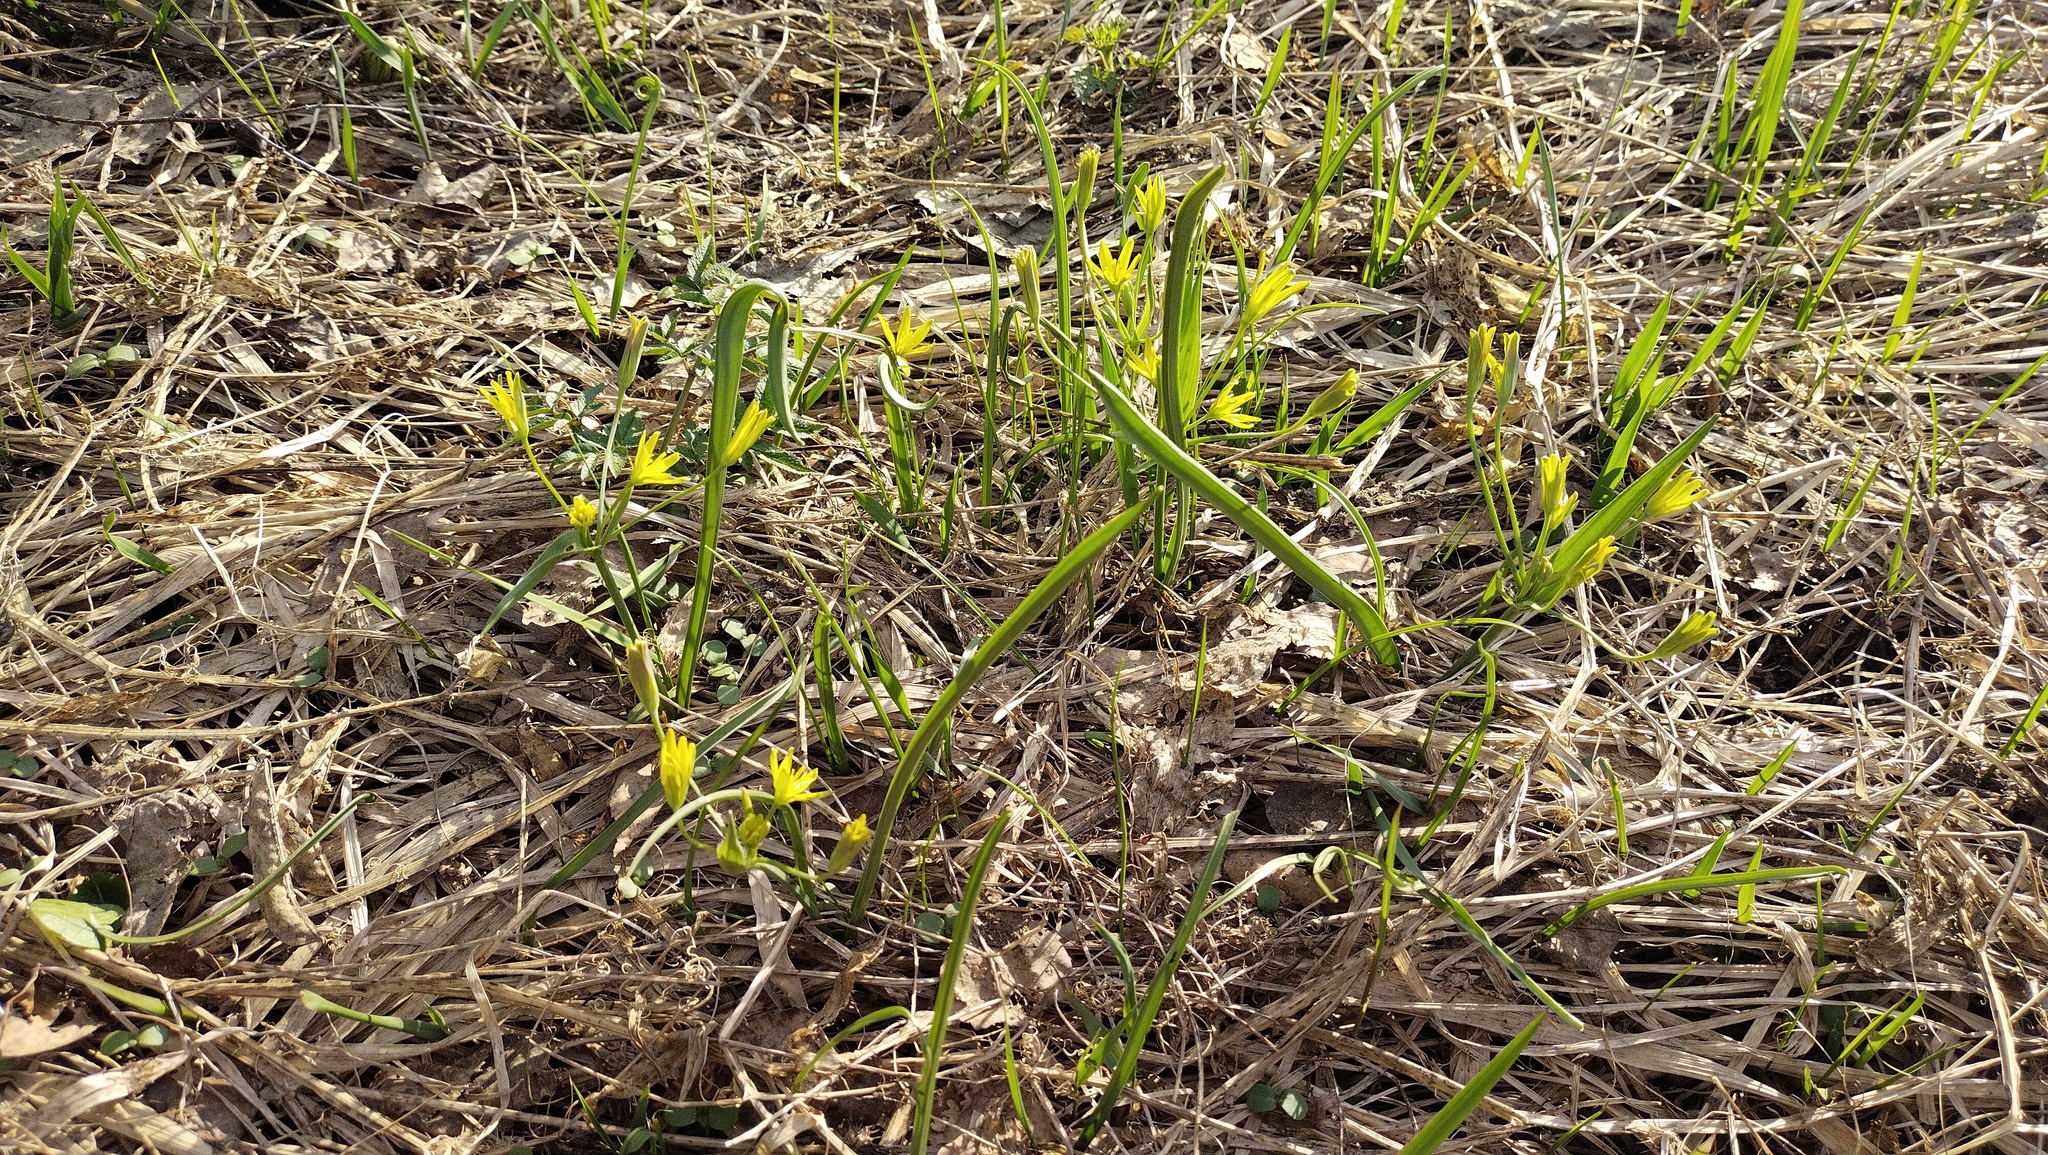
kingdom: Plantae
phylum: Tracheophyta
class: Liliopsida
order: Liliales
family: Liliaceae
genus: Gagea
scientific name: Gagea lutea
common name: Yellow star-of-bethlehem
